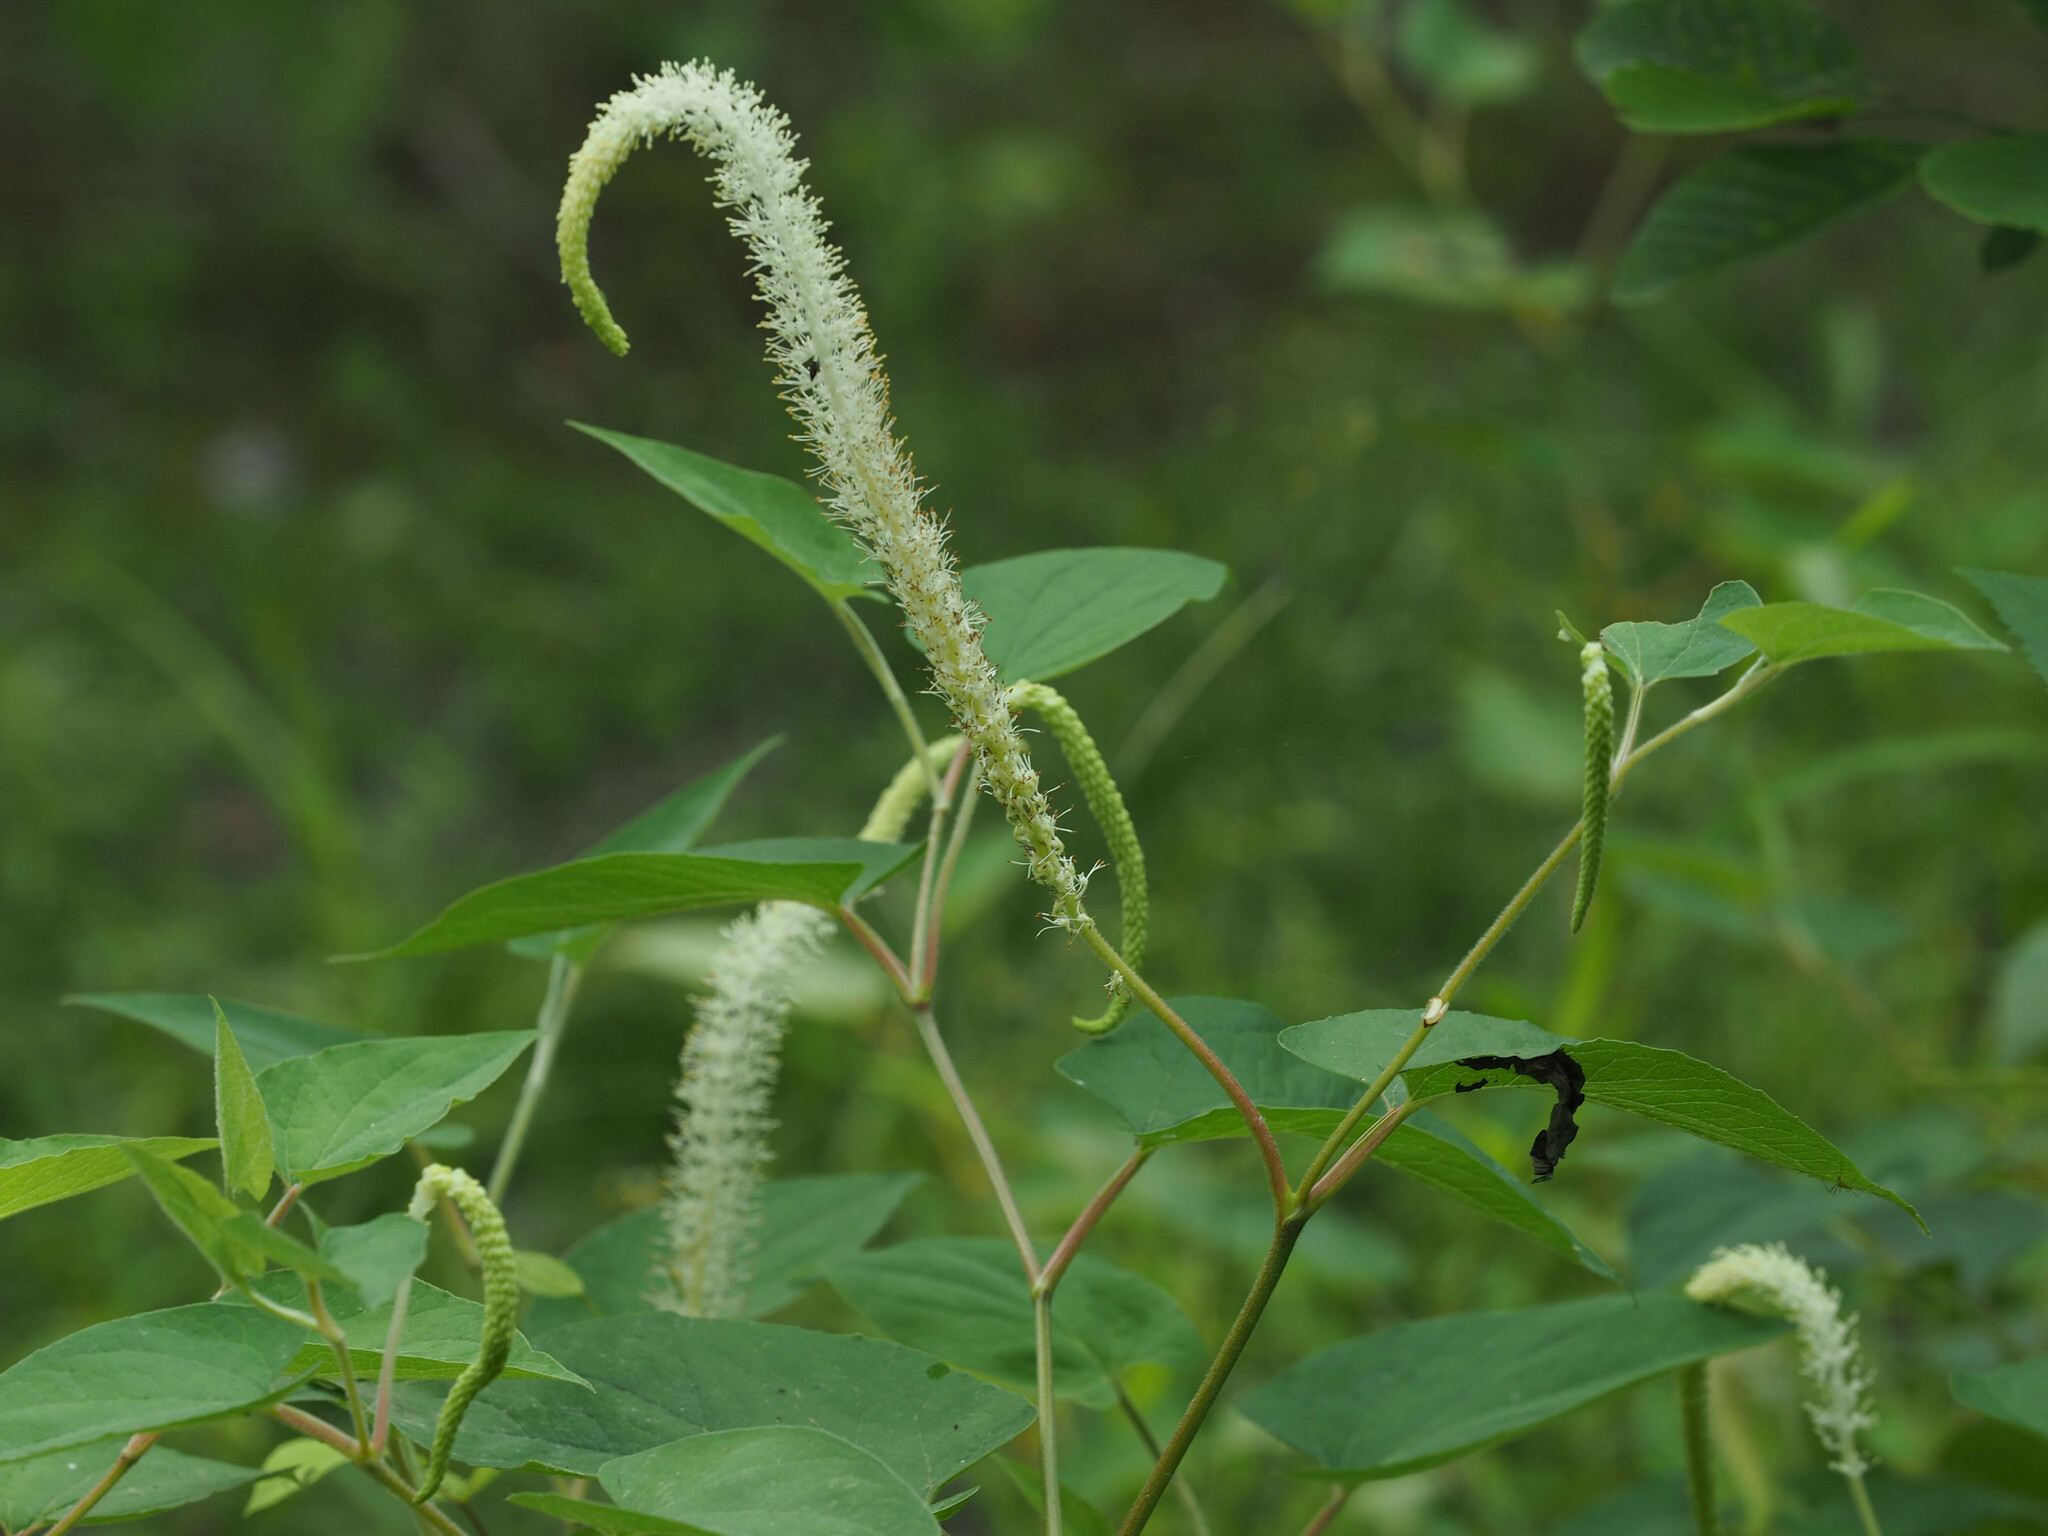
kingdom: Plantae
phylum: Tracheophyta
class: Magnoliopsida
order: Piperales
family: Saururaceae
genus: Saururus
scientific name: Saururus cernuus
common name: Lizard's-tail
